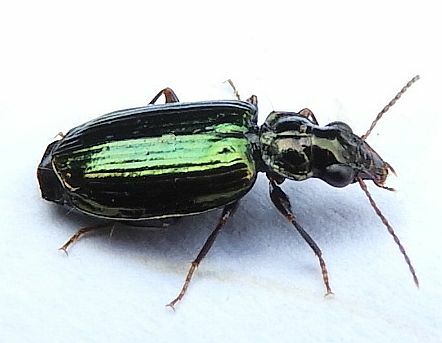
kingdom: Animalia
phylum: Arthropoda
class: Insecta
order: Coleoptera
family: Carabidae
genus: Coptodera
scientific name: Coptodera aerata
